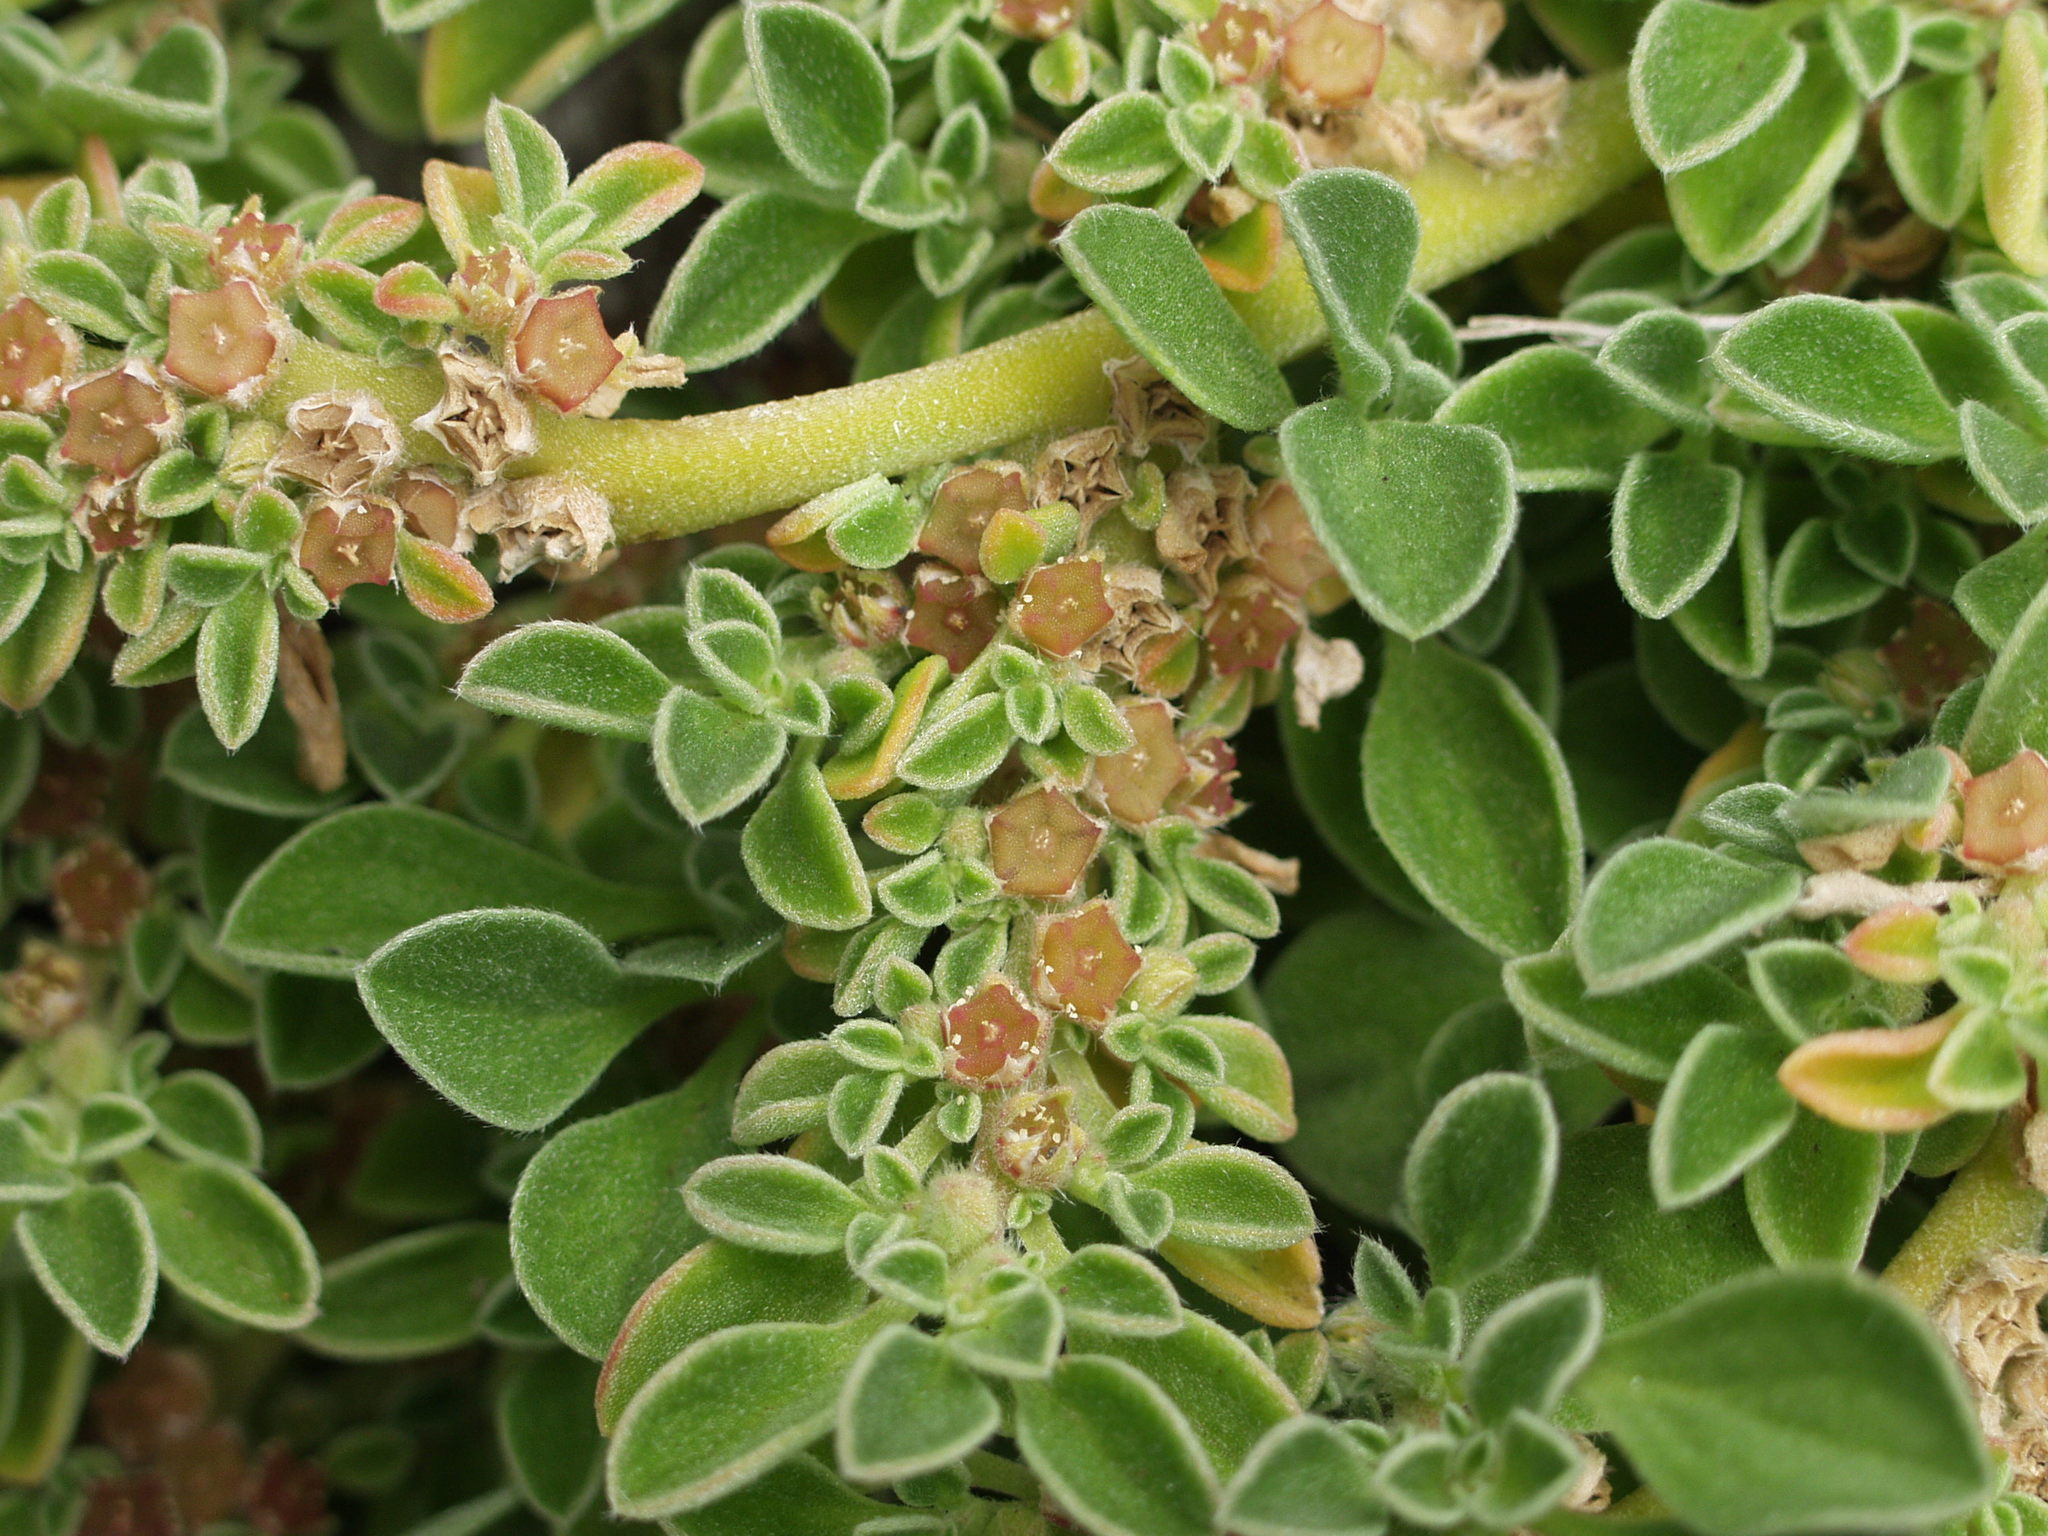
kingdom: Plantae
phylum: Tracheophyta
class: Magnoliopsida
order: Caryophyllales
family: Aizoaceae
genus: Aizoon
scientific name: Aizoon canariense
